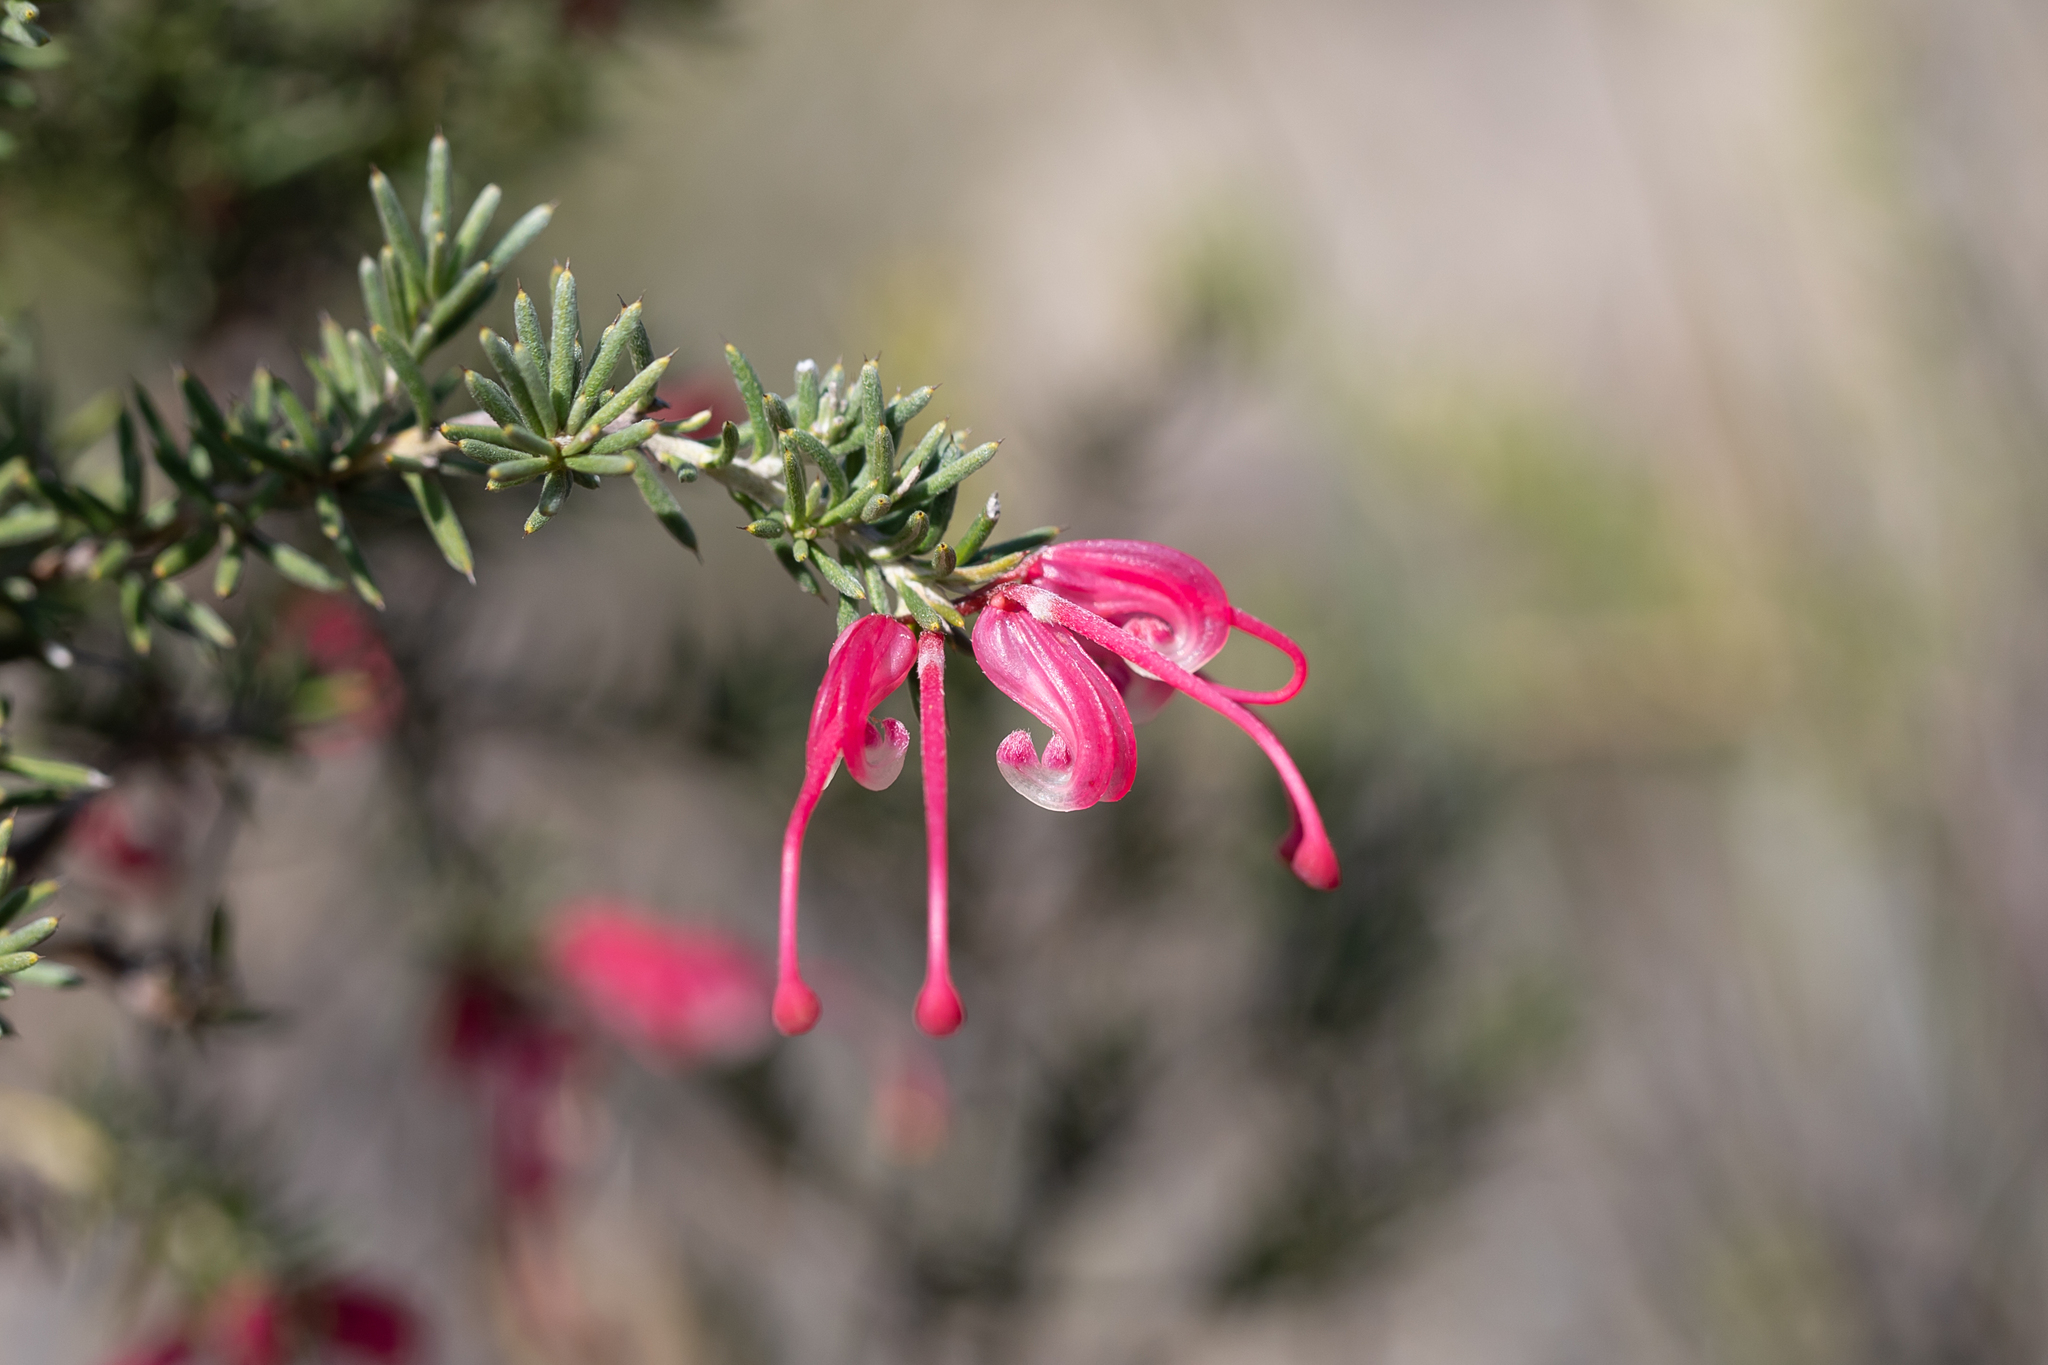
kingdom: Plantae
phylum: Tracheophyta
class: Magnoliopsida
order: Proteales
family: Proteaceae
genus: Grevillea
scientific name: Grevillea lavandulacea
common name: Lavender grevillea
